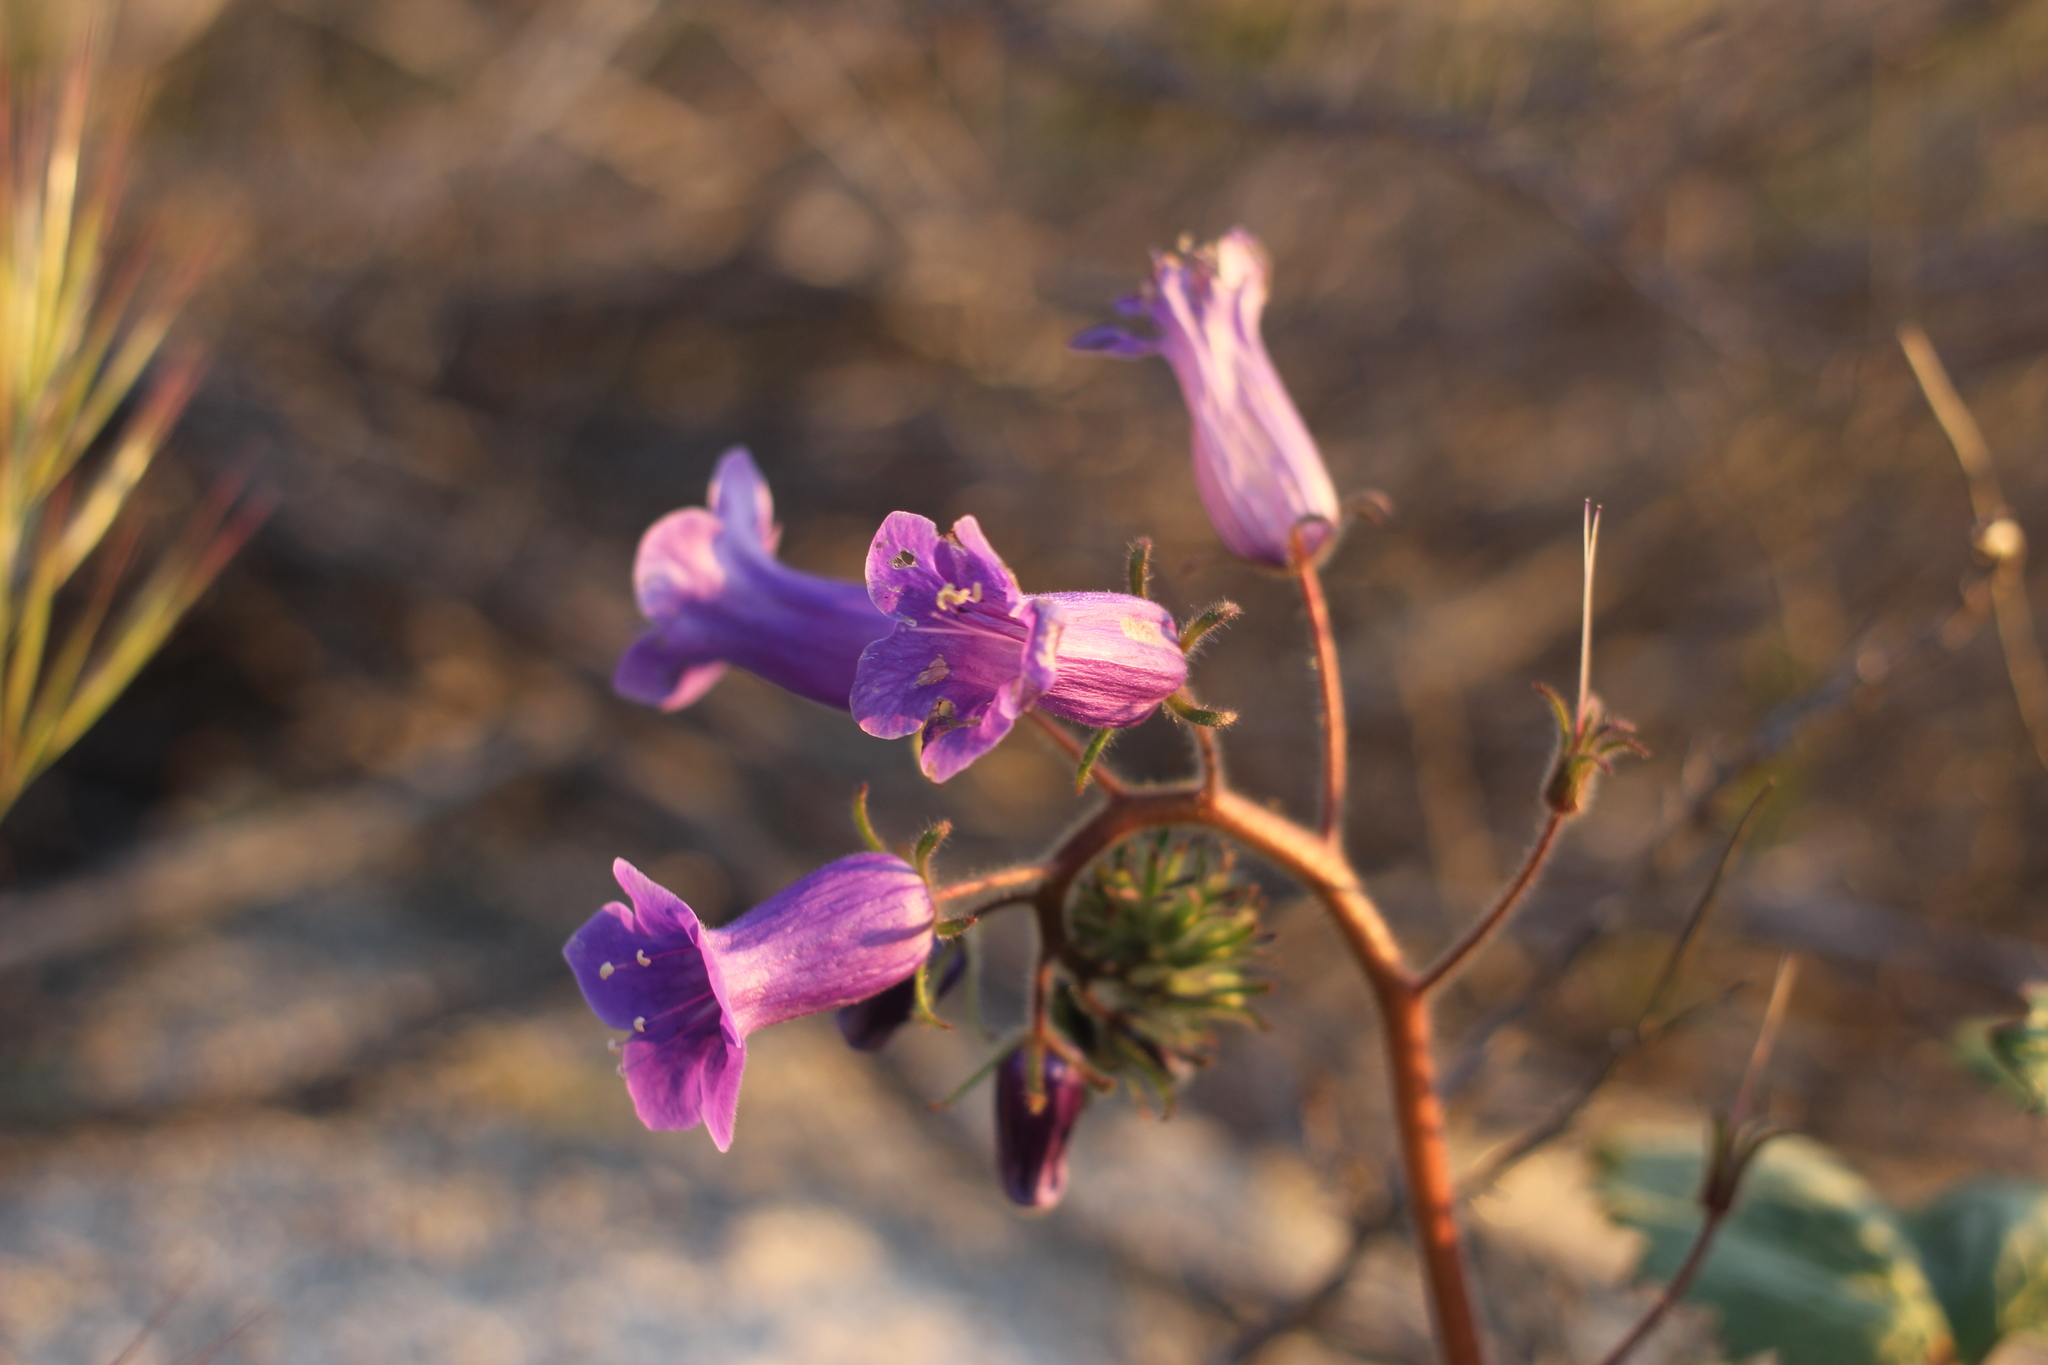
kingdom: Plantae
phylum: Tracheophyta
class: Magnoliopsida
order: Boraginales
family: Hydrophyllaceae
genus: Phacelia
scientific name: Phacelia minor
